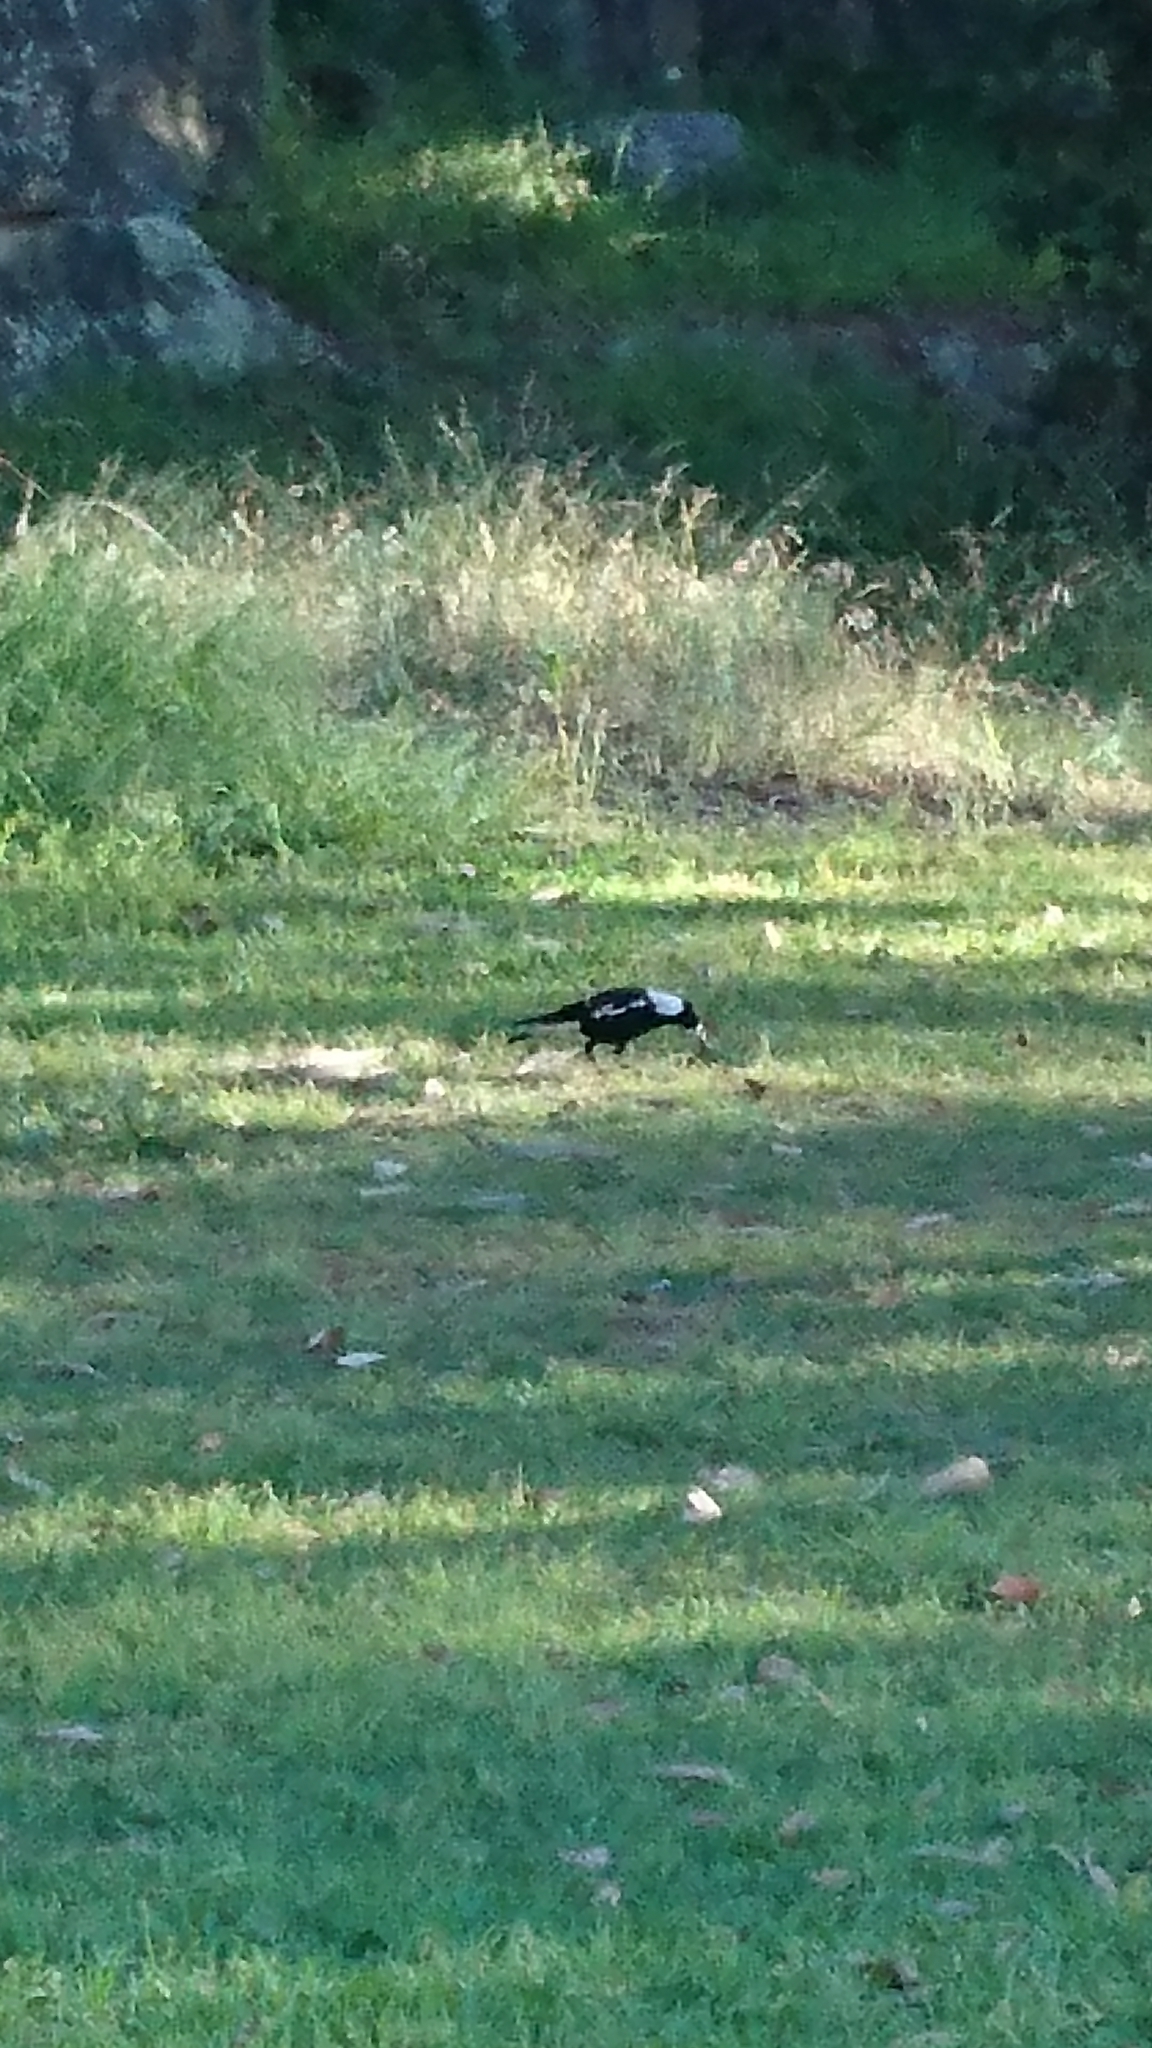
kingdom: Animalia
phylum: Chordata
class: Aves
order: Passeriformes
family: Cracticidae
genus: Gymnorhina
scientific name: Gymnorhina tibicen
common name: Australian magpie
